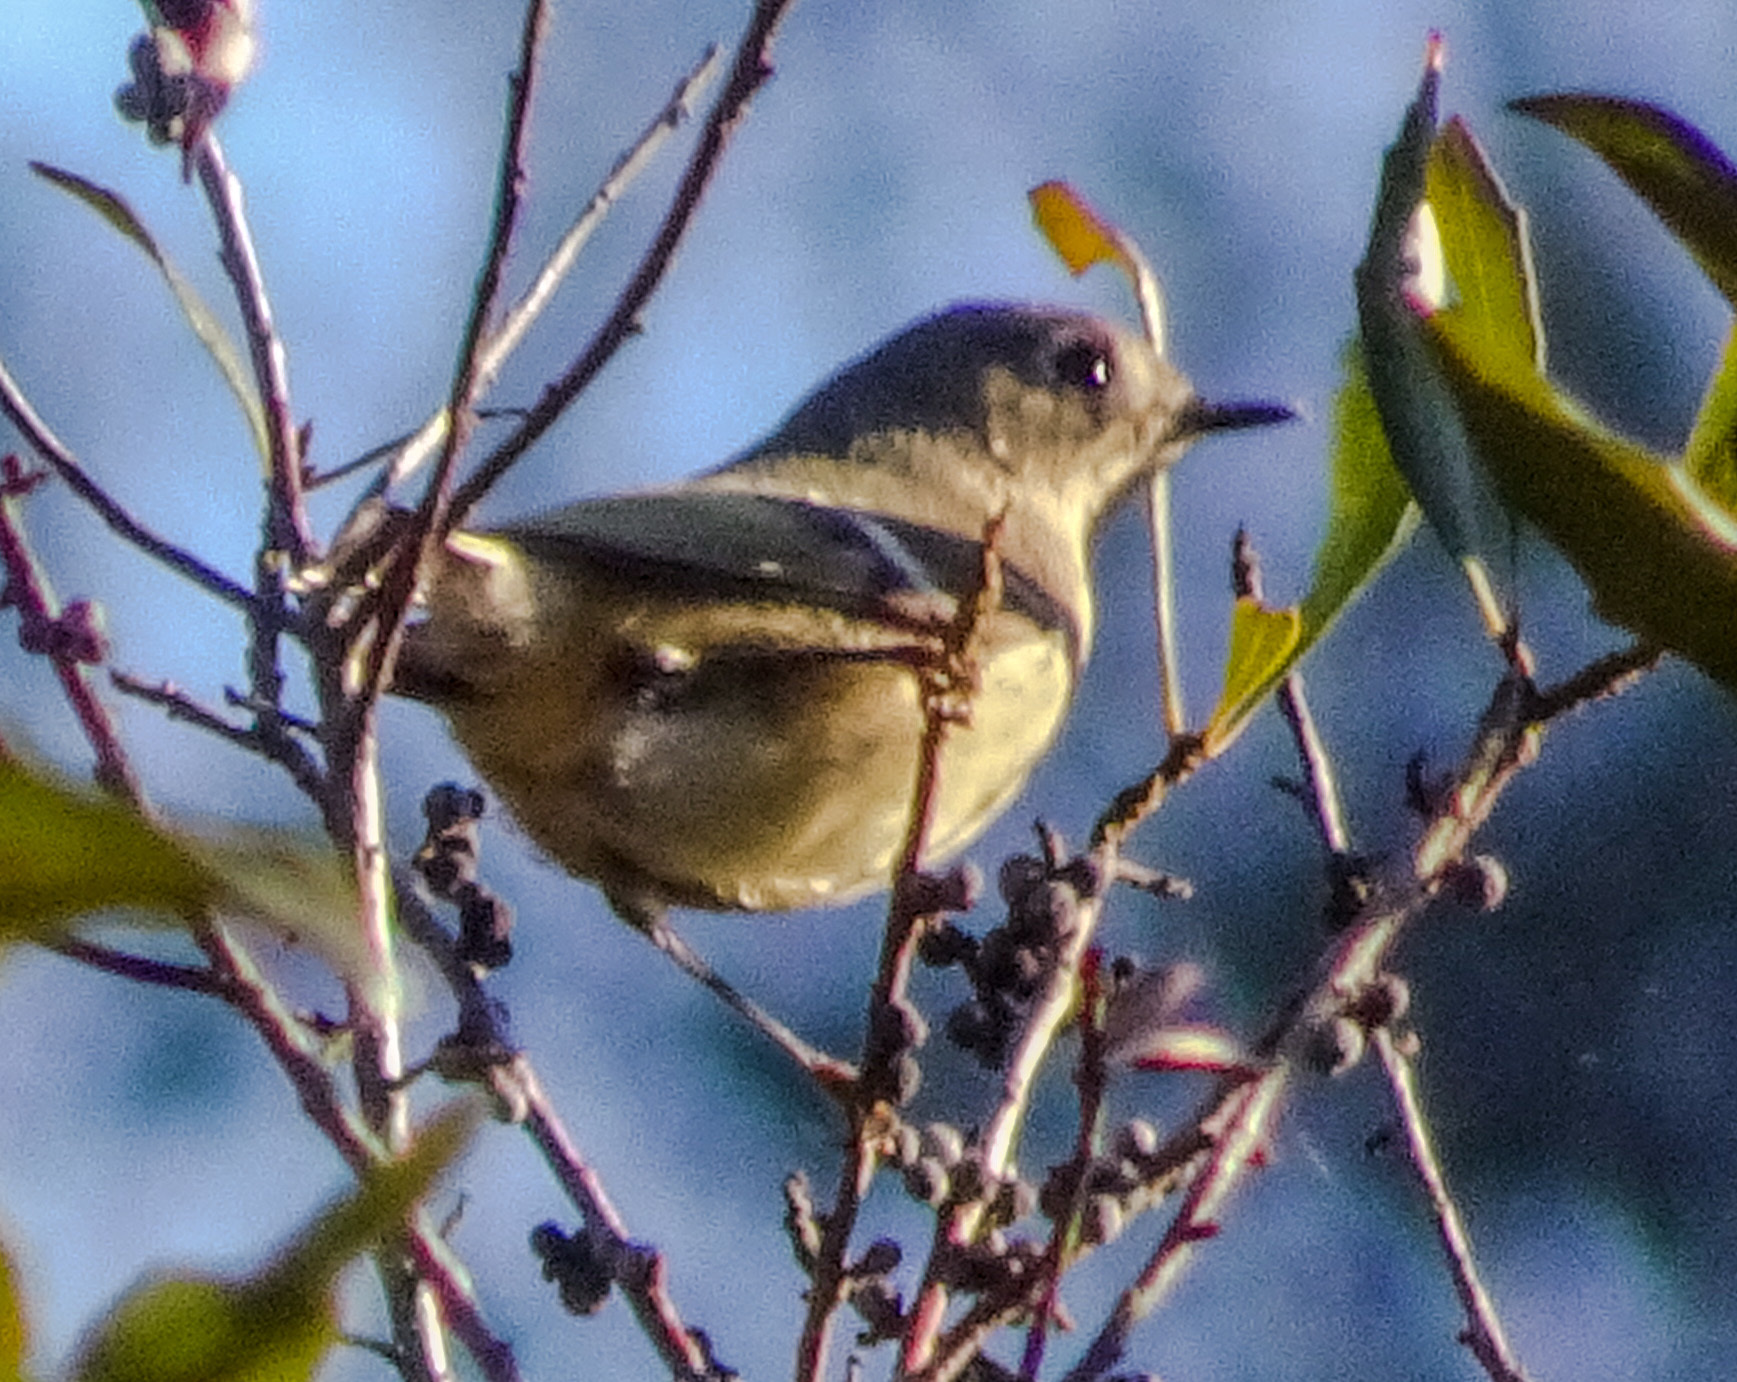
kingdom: Animalia
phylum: Chordata
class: Aves
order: Passeriformes
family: Regulidae
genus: Regulus
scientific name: Regulus calendula
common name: Ruby-crowned kinglet
